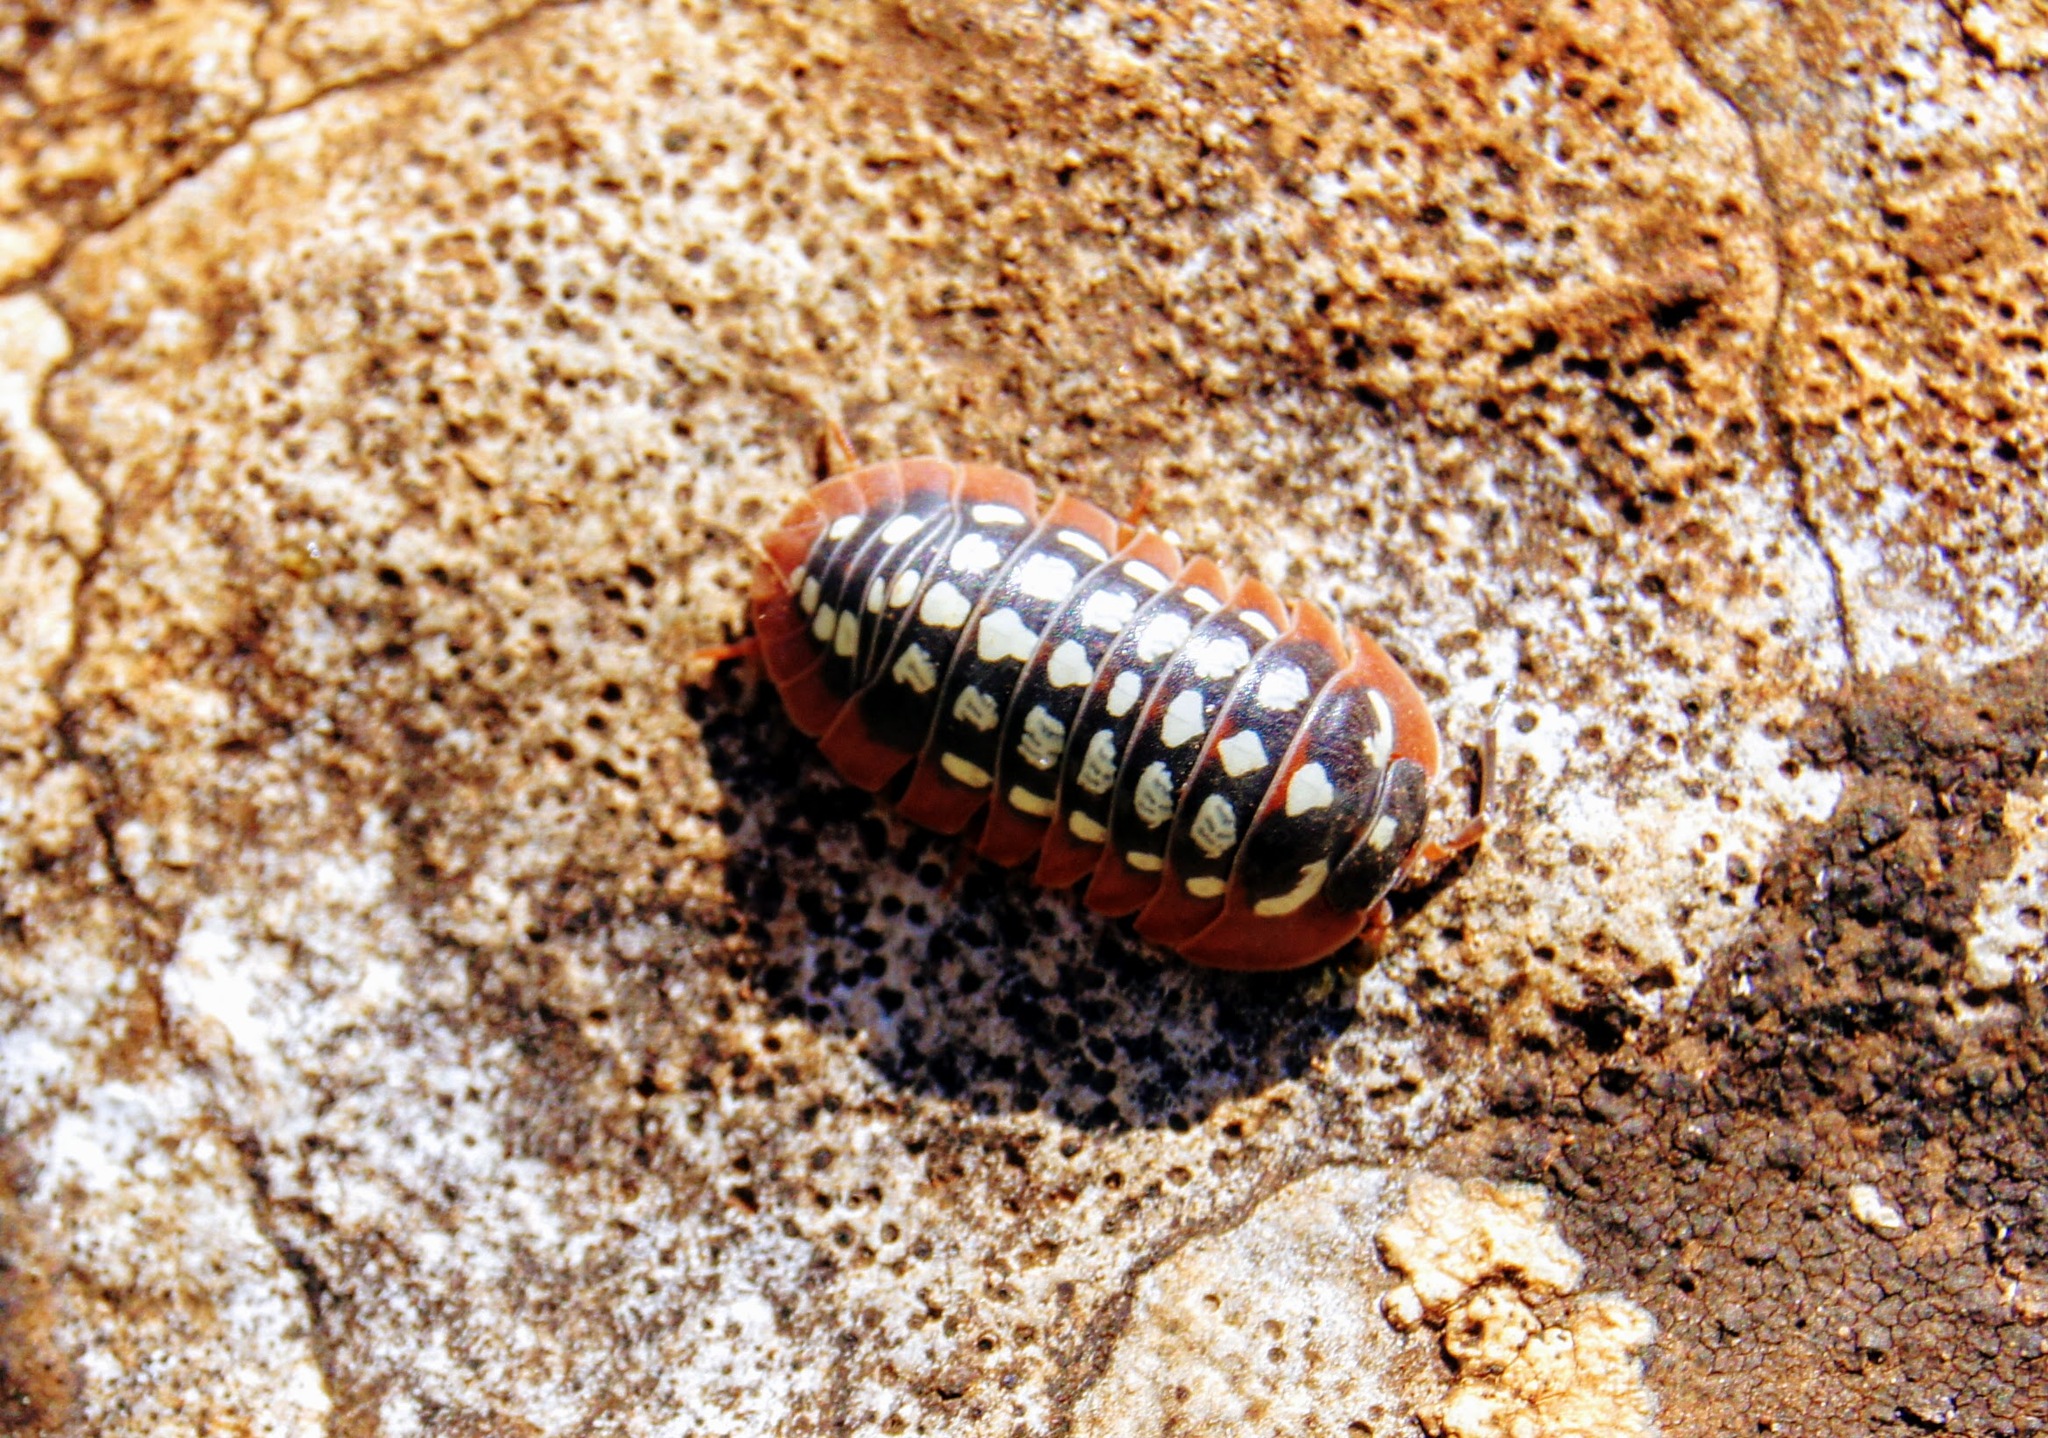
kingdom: Animalia
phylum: Arthropoda
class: Malacostraca
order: Isopoda
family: Armadillidiidae
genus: Armadillidium
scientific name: Armadillidium werneri
